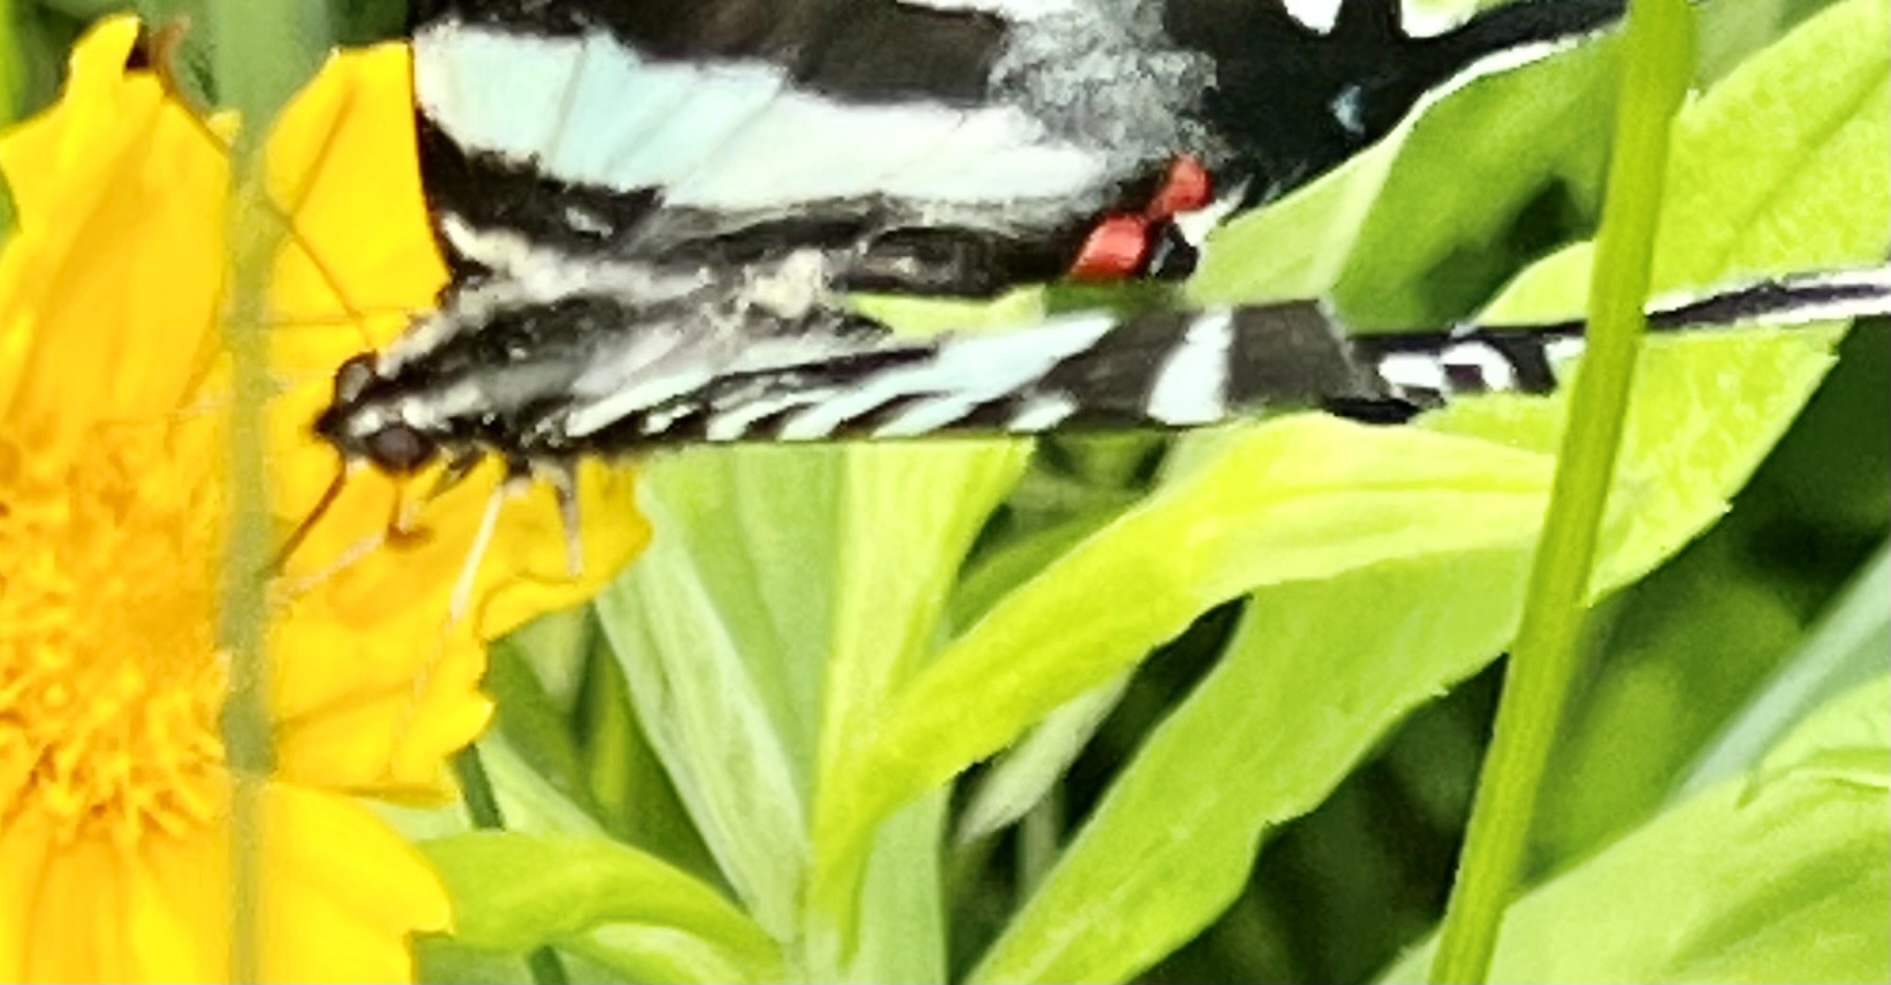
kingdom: Animalia
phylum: Arthropoda
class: Insecta
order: Lepidoptera
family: Papilionidae
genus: Protographium
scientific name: Protographium marcellus
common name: Zebra swallowtail
